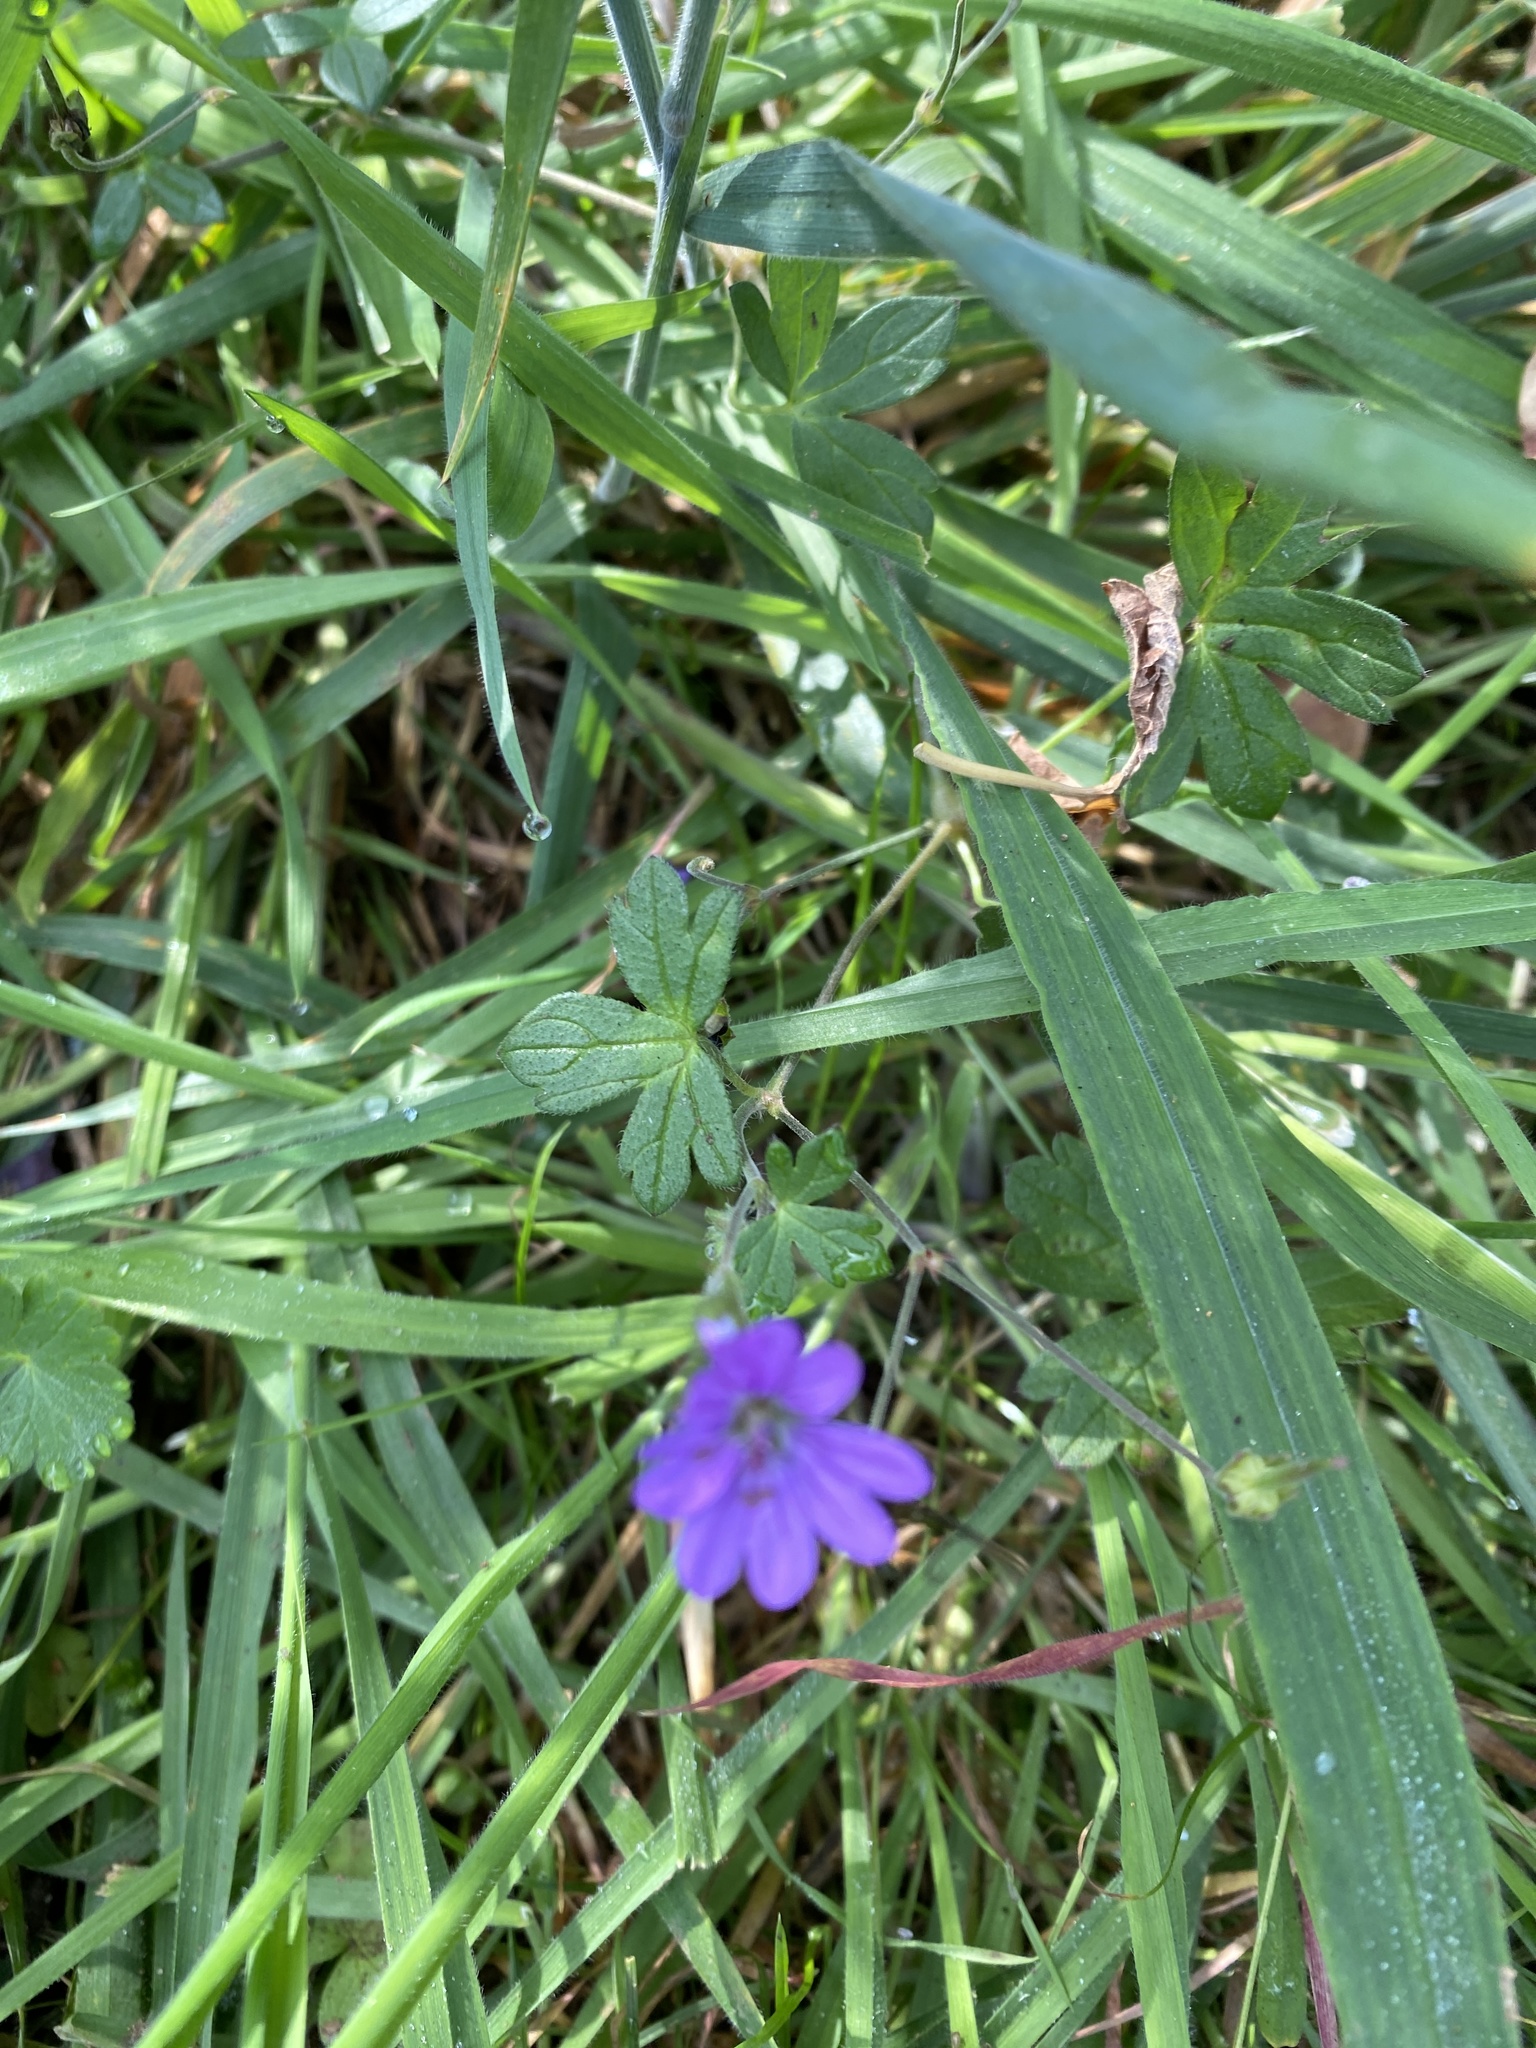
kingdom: Plantae
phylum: Tracheophyta
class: Magnoliopsida
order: Geraniales
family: Geraniaceae
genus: Geranium
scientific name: Geranium pyrenaicum
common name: Hedgerow crane's-bill
